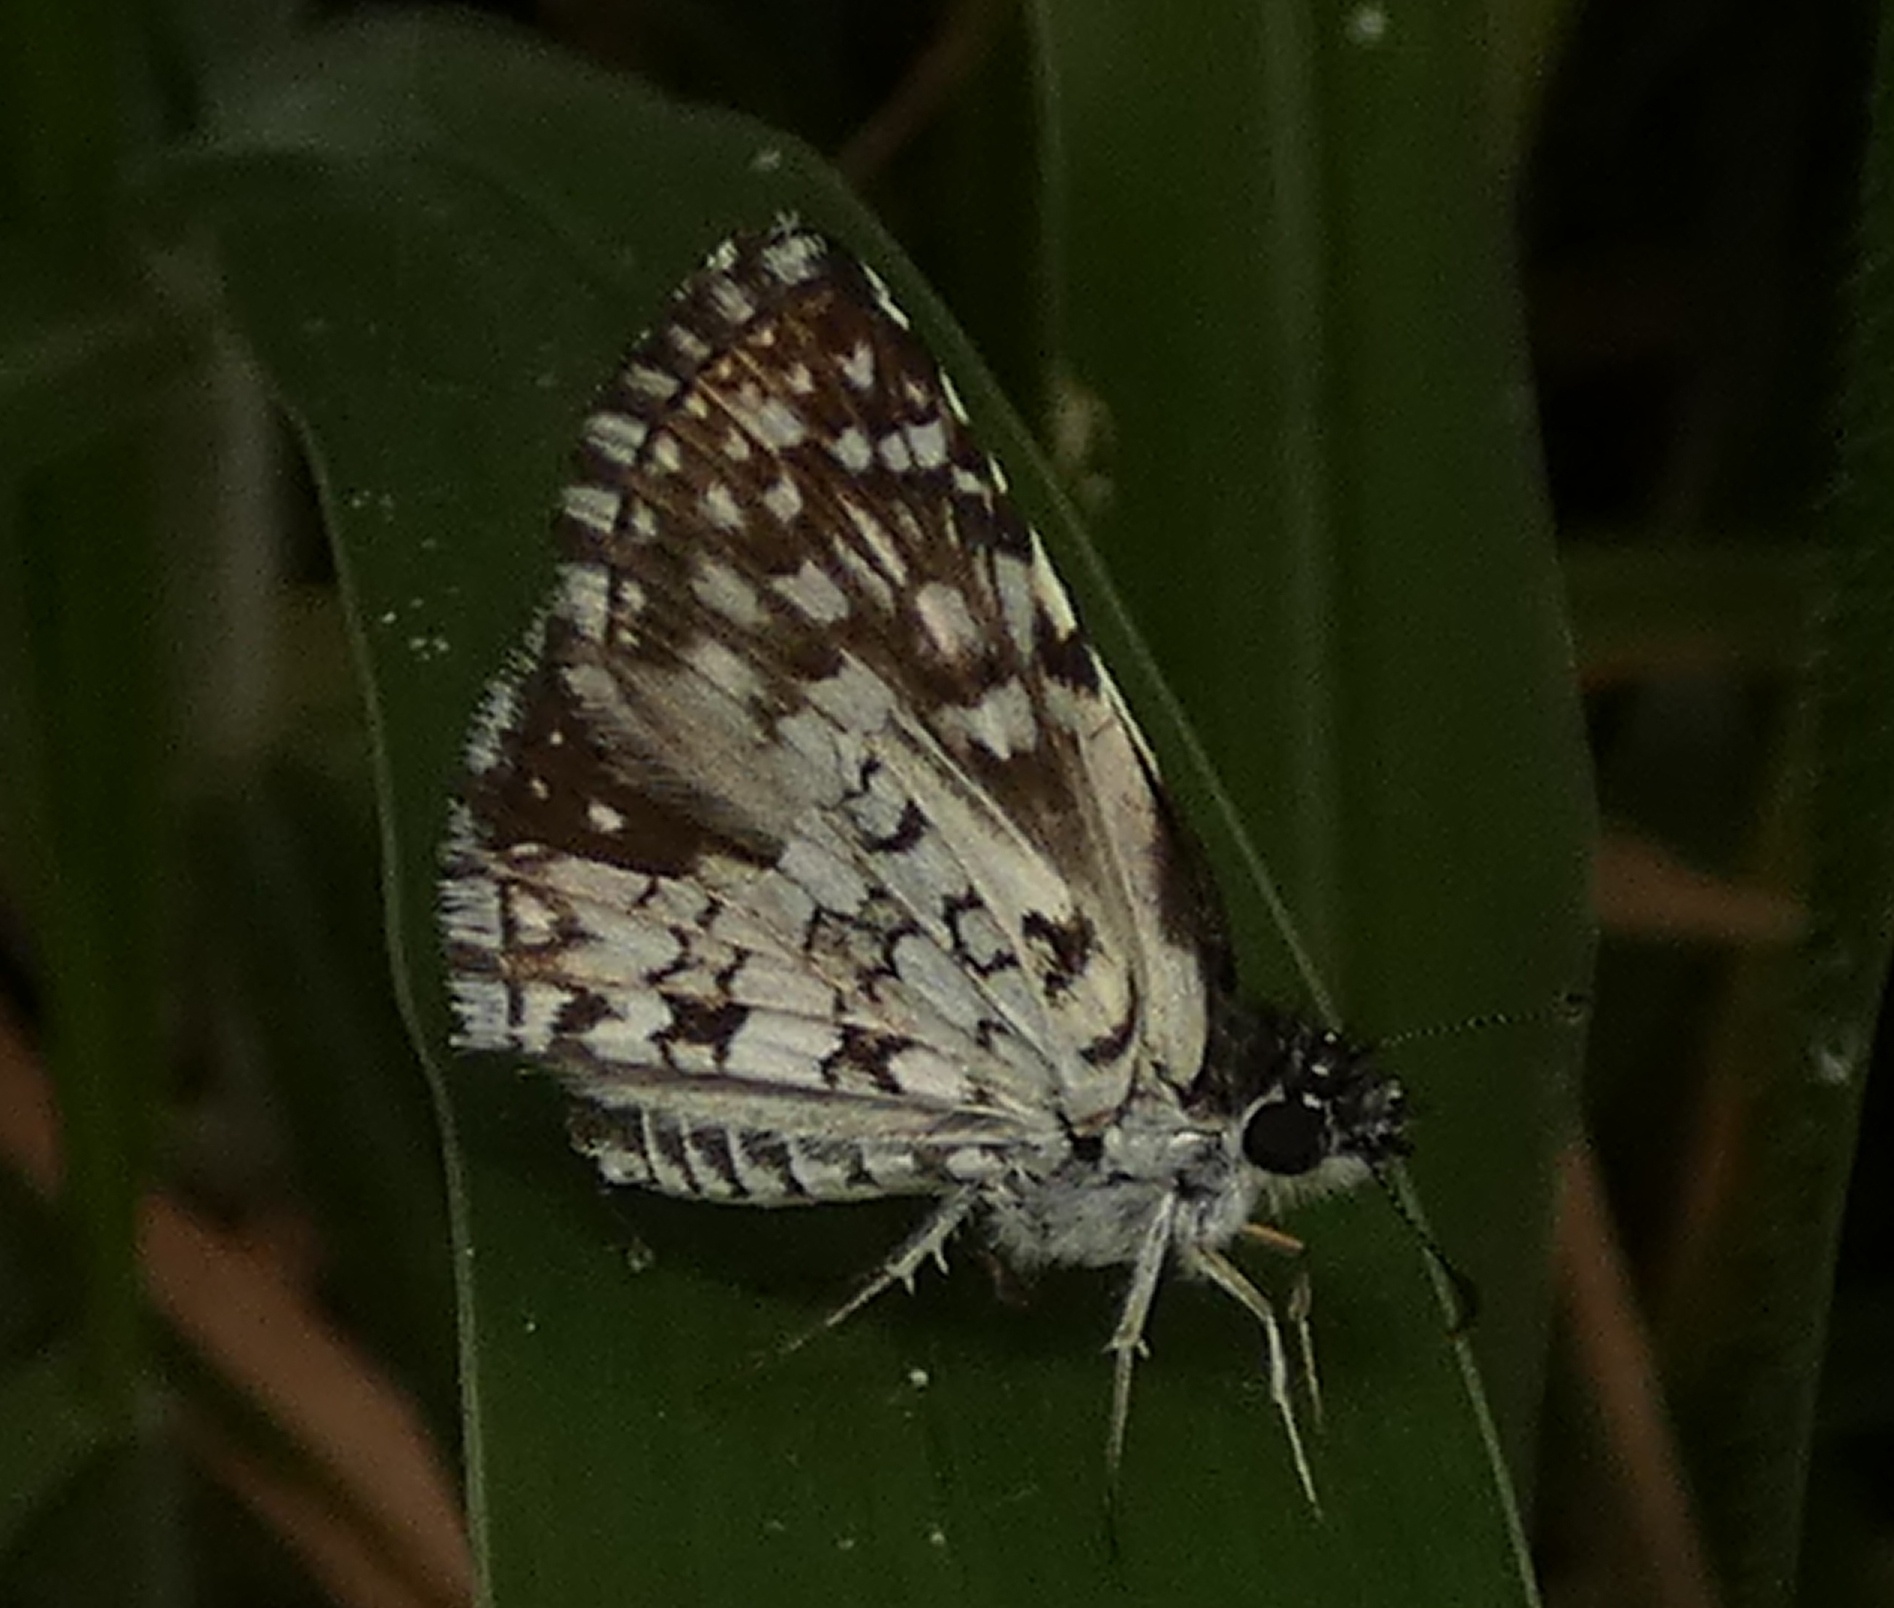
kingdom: Animalia
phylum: Arthropoda
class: Insecta
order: Lepidoptera
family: Hesperiidae
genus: Pyrgus
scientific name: Pyrgus oileus
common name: Tropical checkered-skipper
